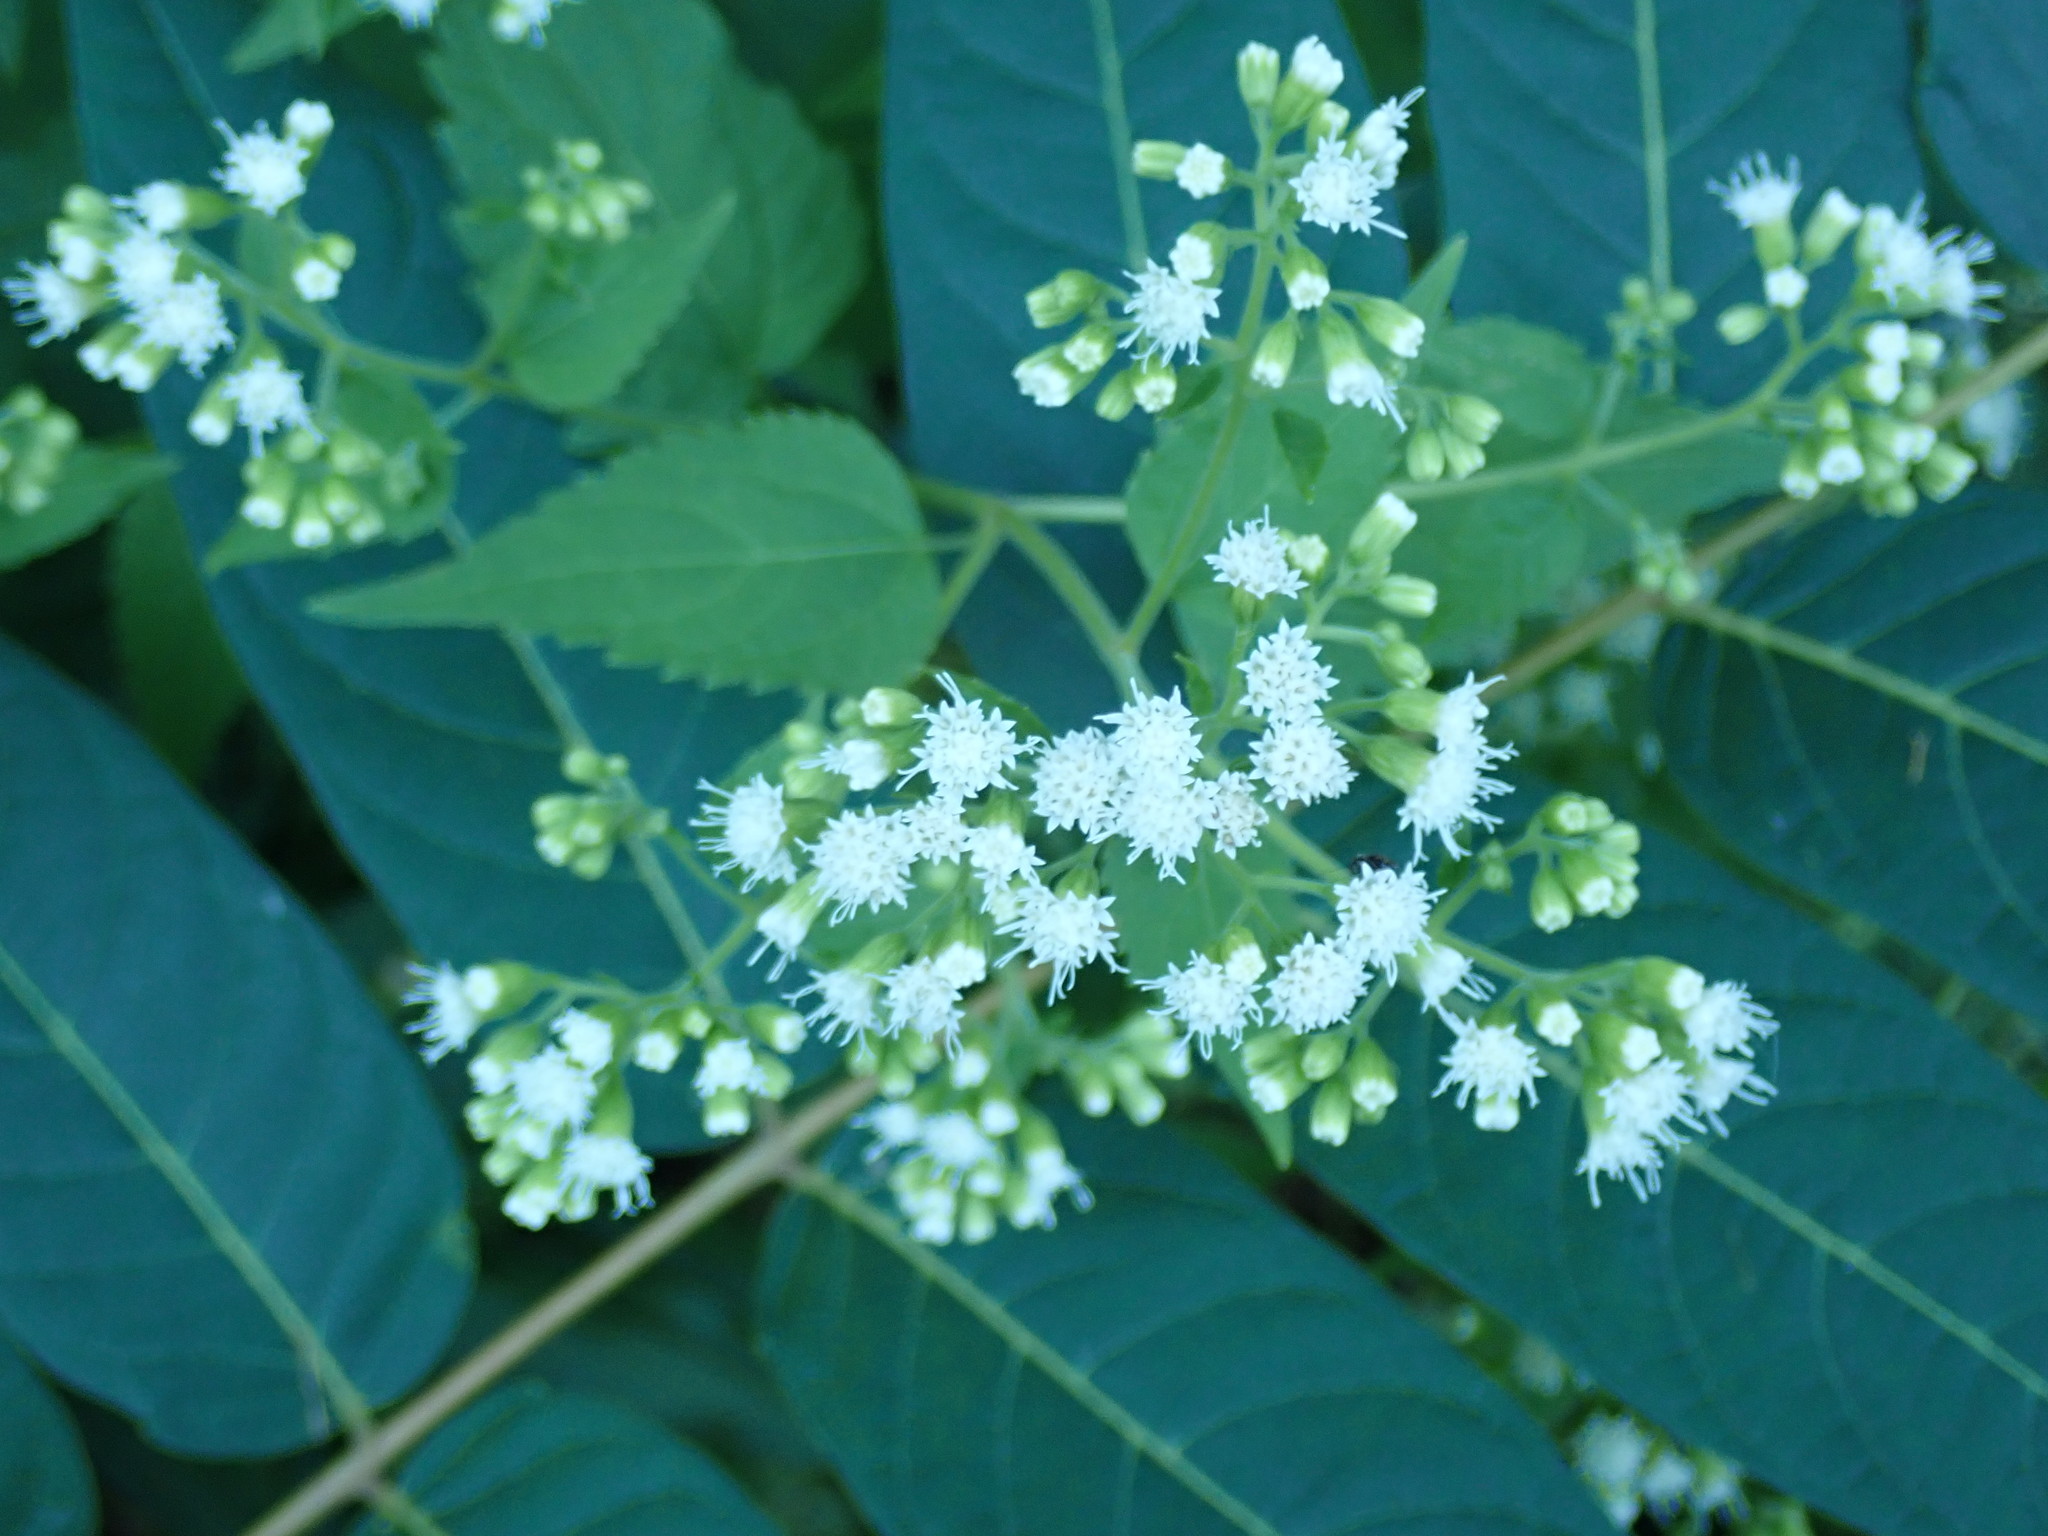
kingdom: Plantae
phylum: Tracheophyta
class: Magnoliopsida
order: Asterales
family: Asteraceae
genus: Ageratina
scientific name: Ageratina altissima
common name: White snakeroot
